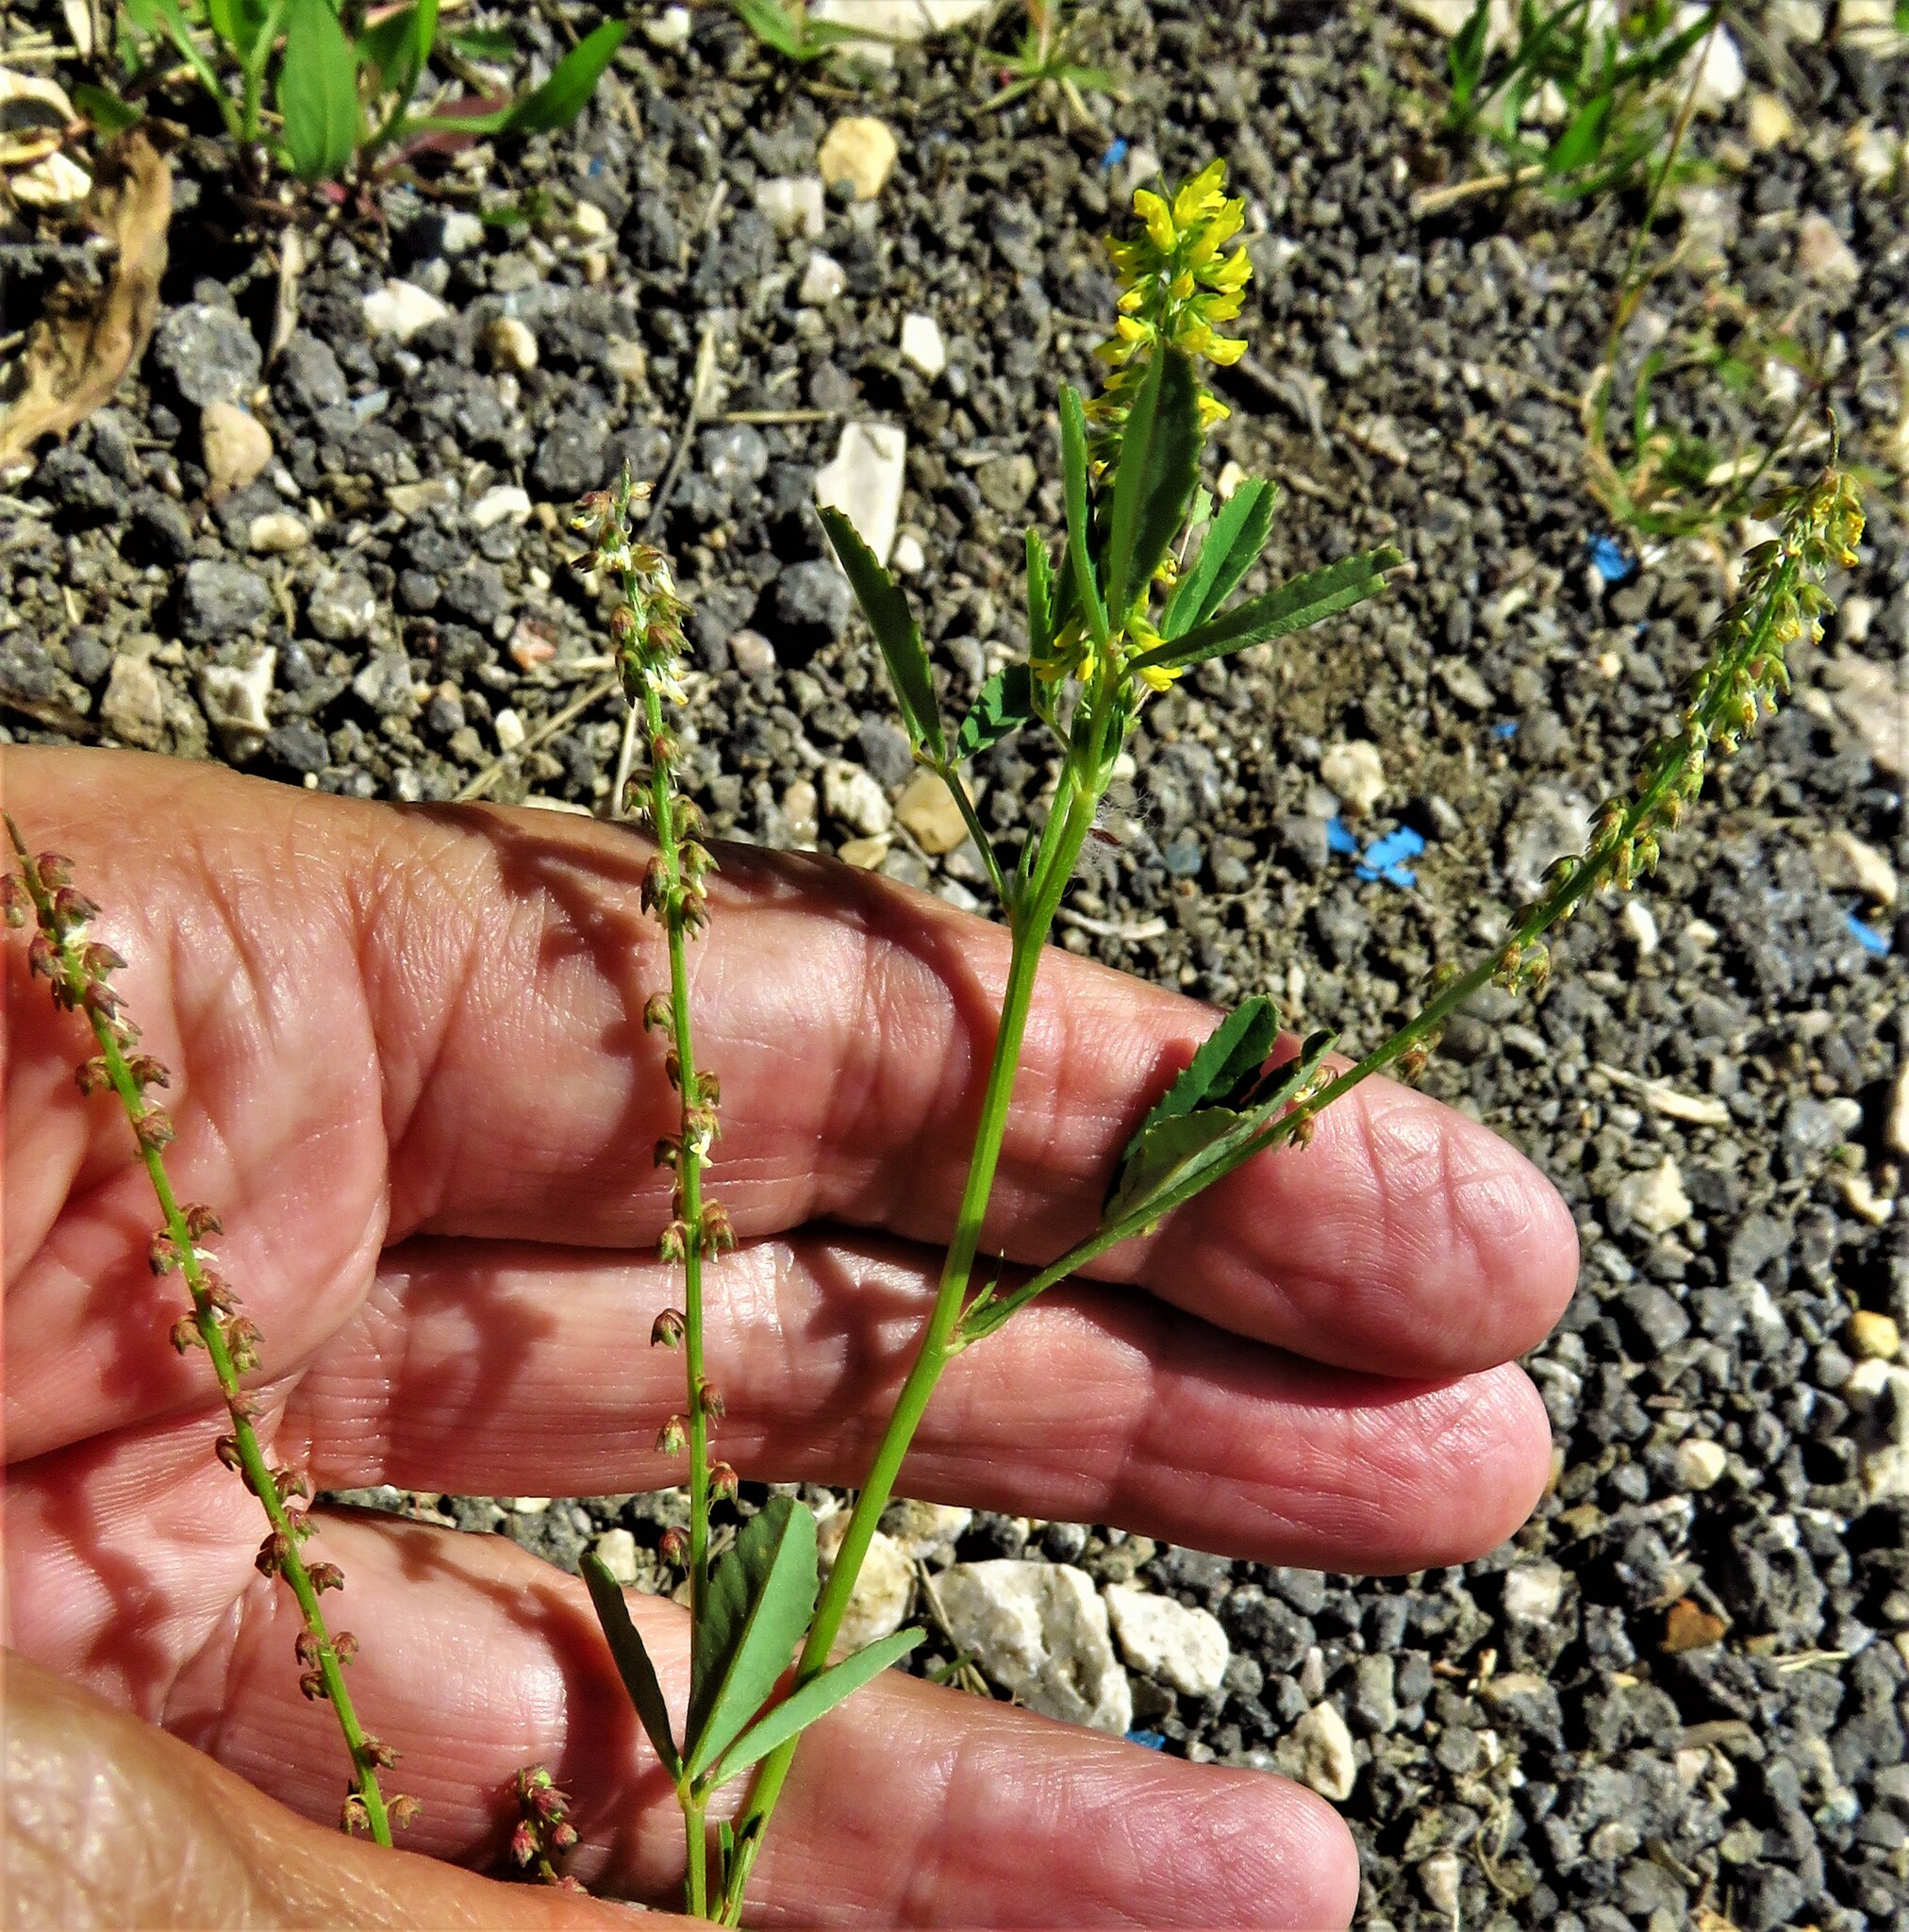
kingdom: Plantae
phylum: Tracheophyta
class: Magnoliopsida
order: Fabales
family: Fabaceae
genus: Melilotus
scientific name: Melilotus indicus
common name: Small melilot
